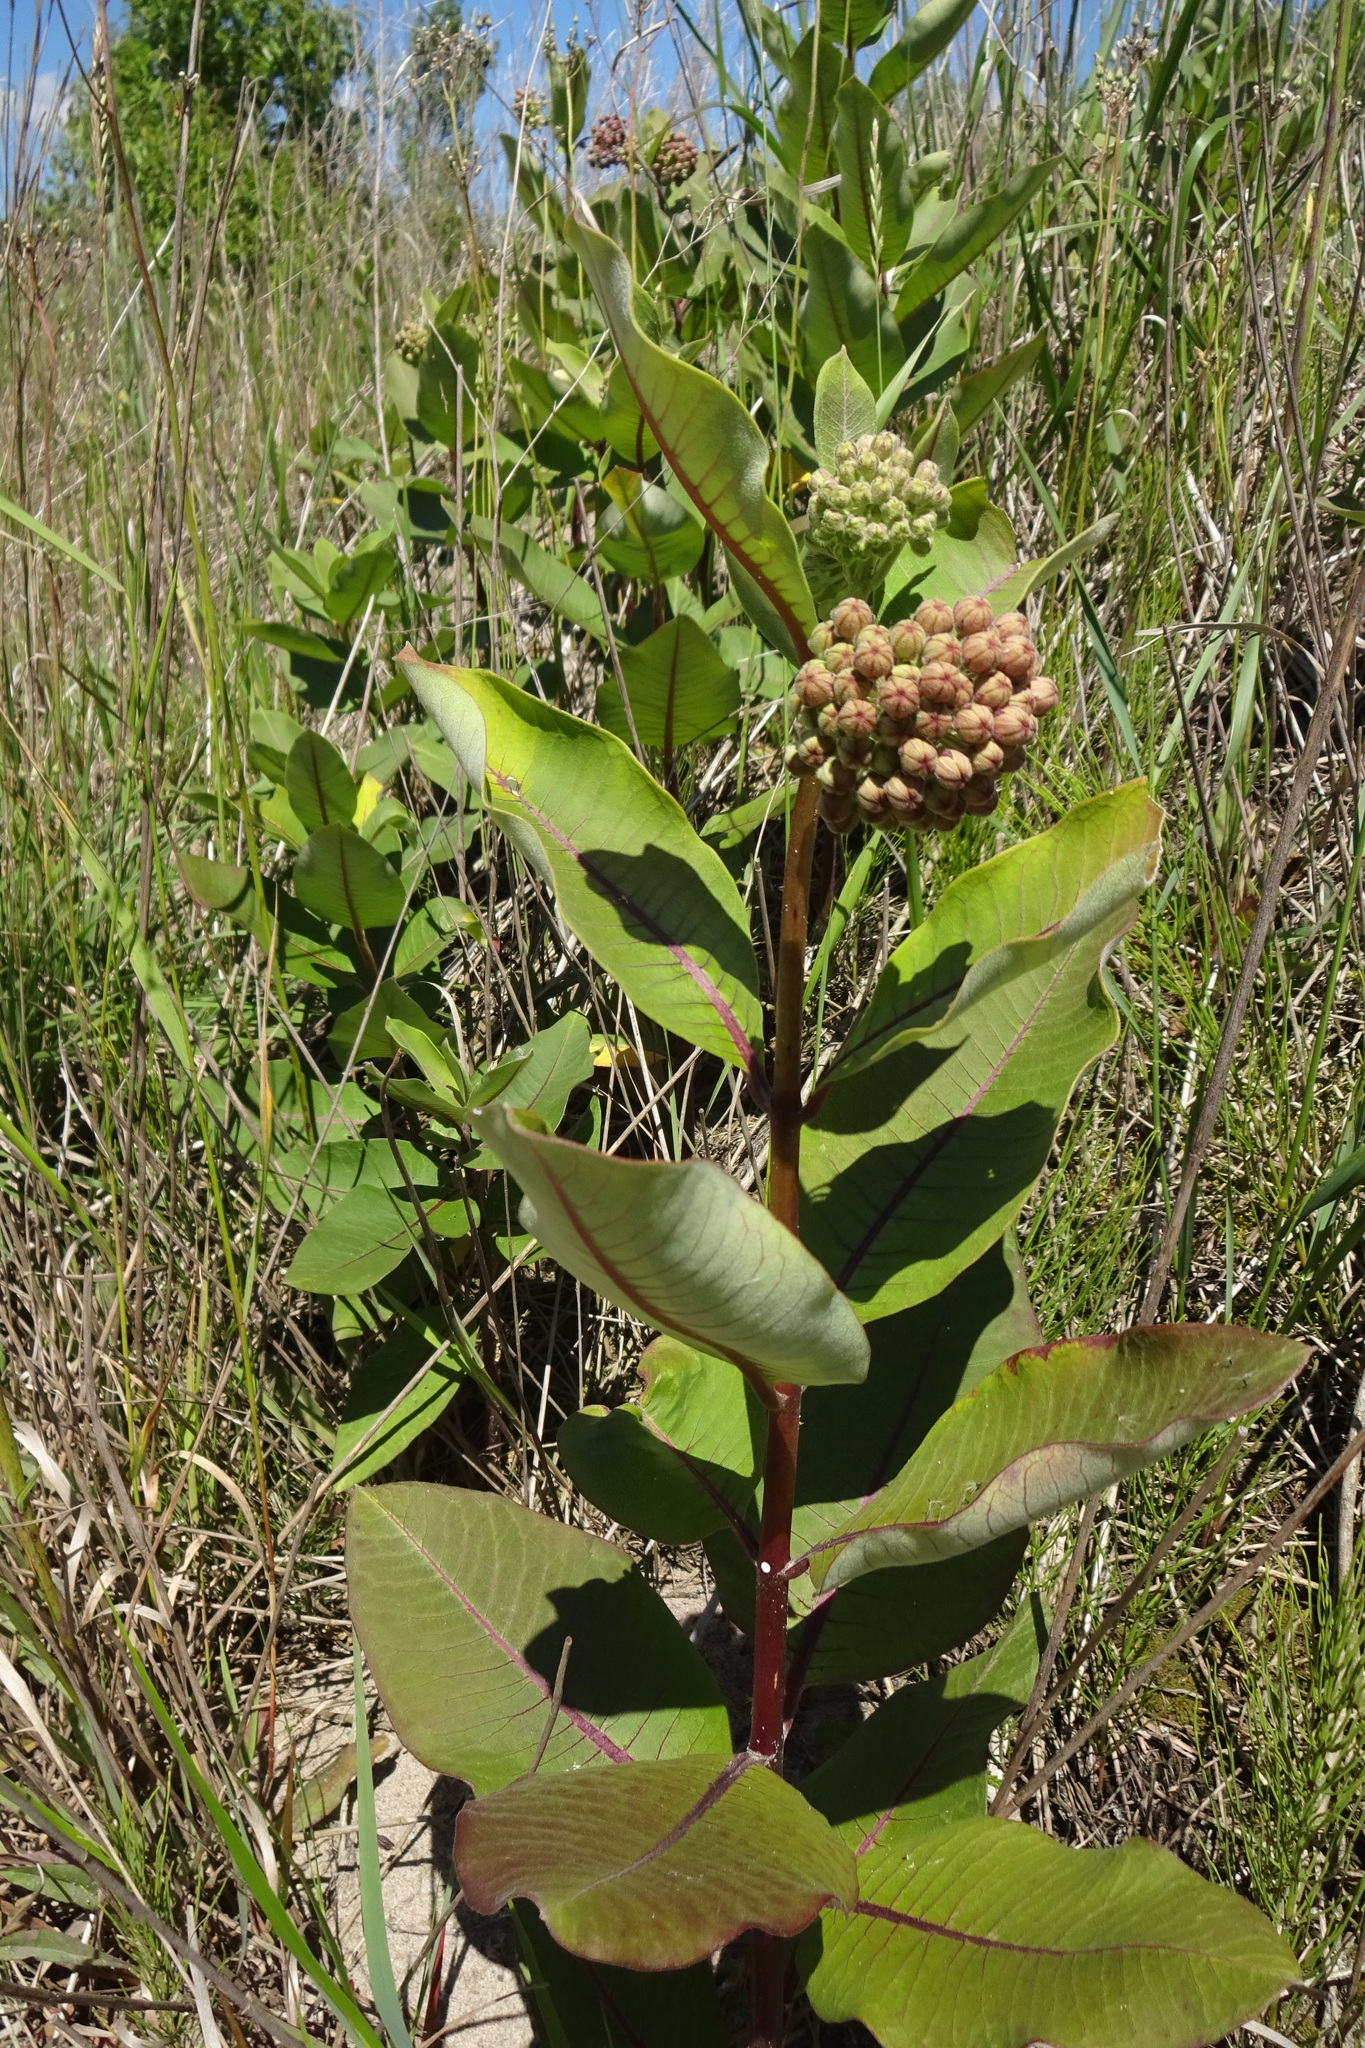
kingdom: Plantae
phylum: Tracheophyta
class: Magnoliopsida
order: Gentianales
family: Apocynaceae
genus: Asclepias
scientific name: Asclepias syriaca
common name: Common milkweed
